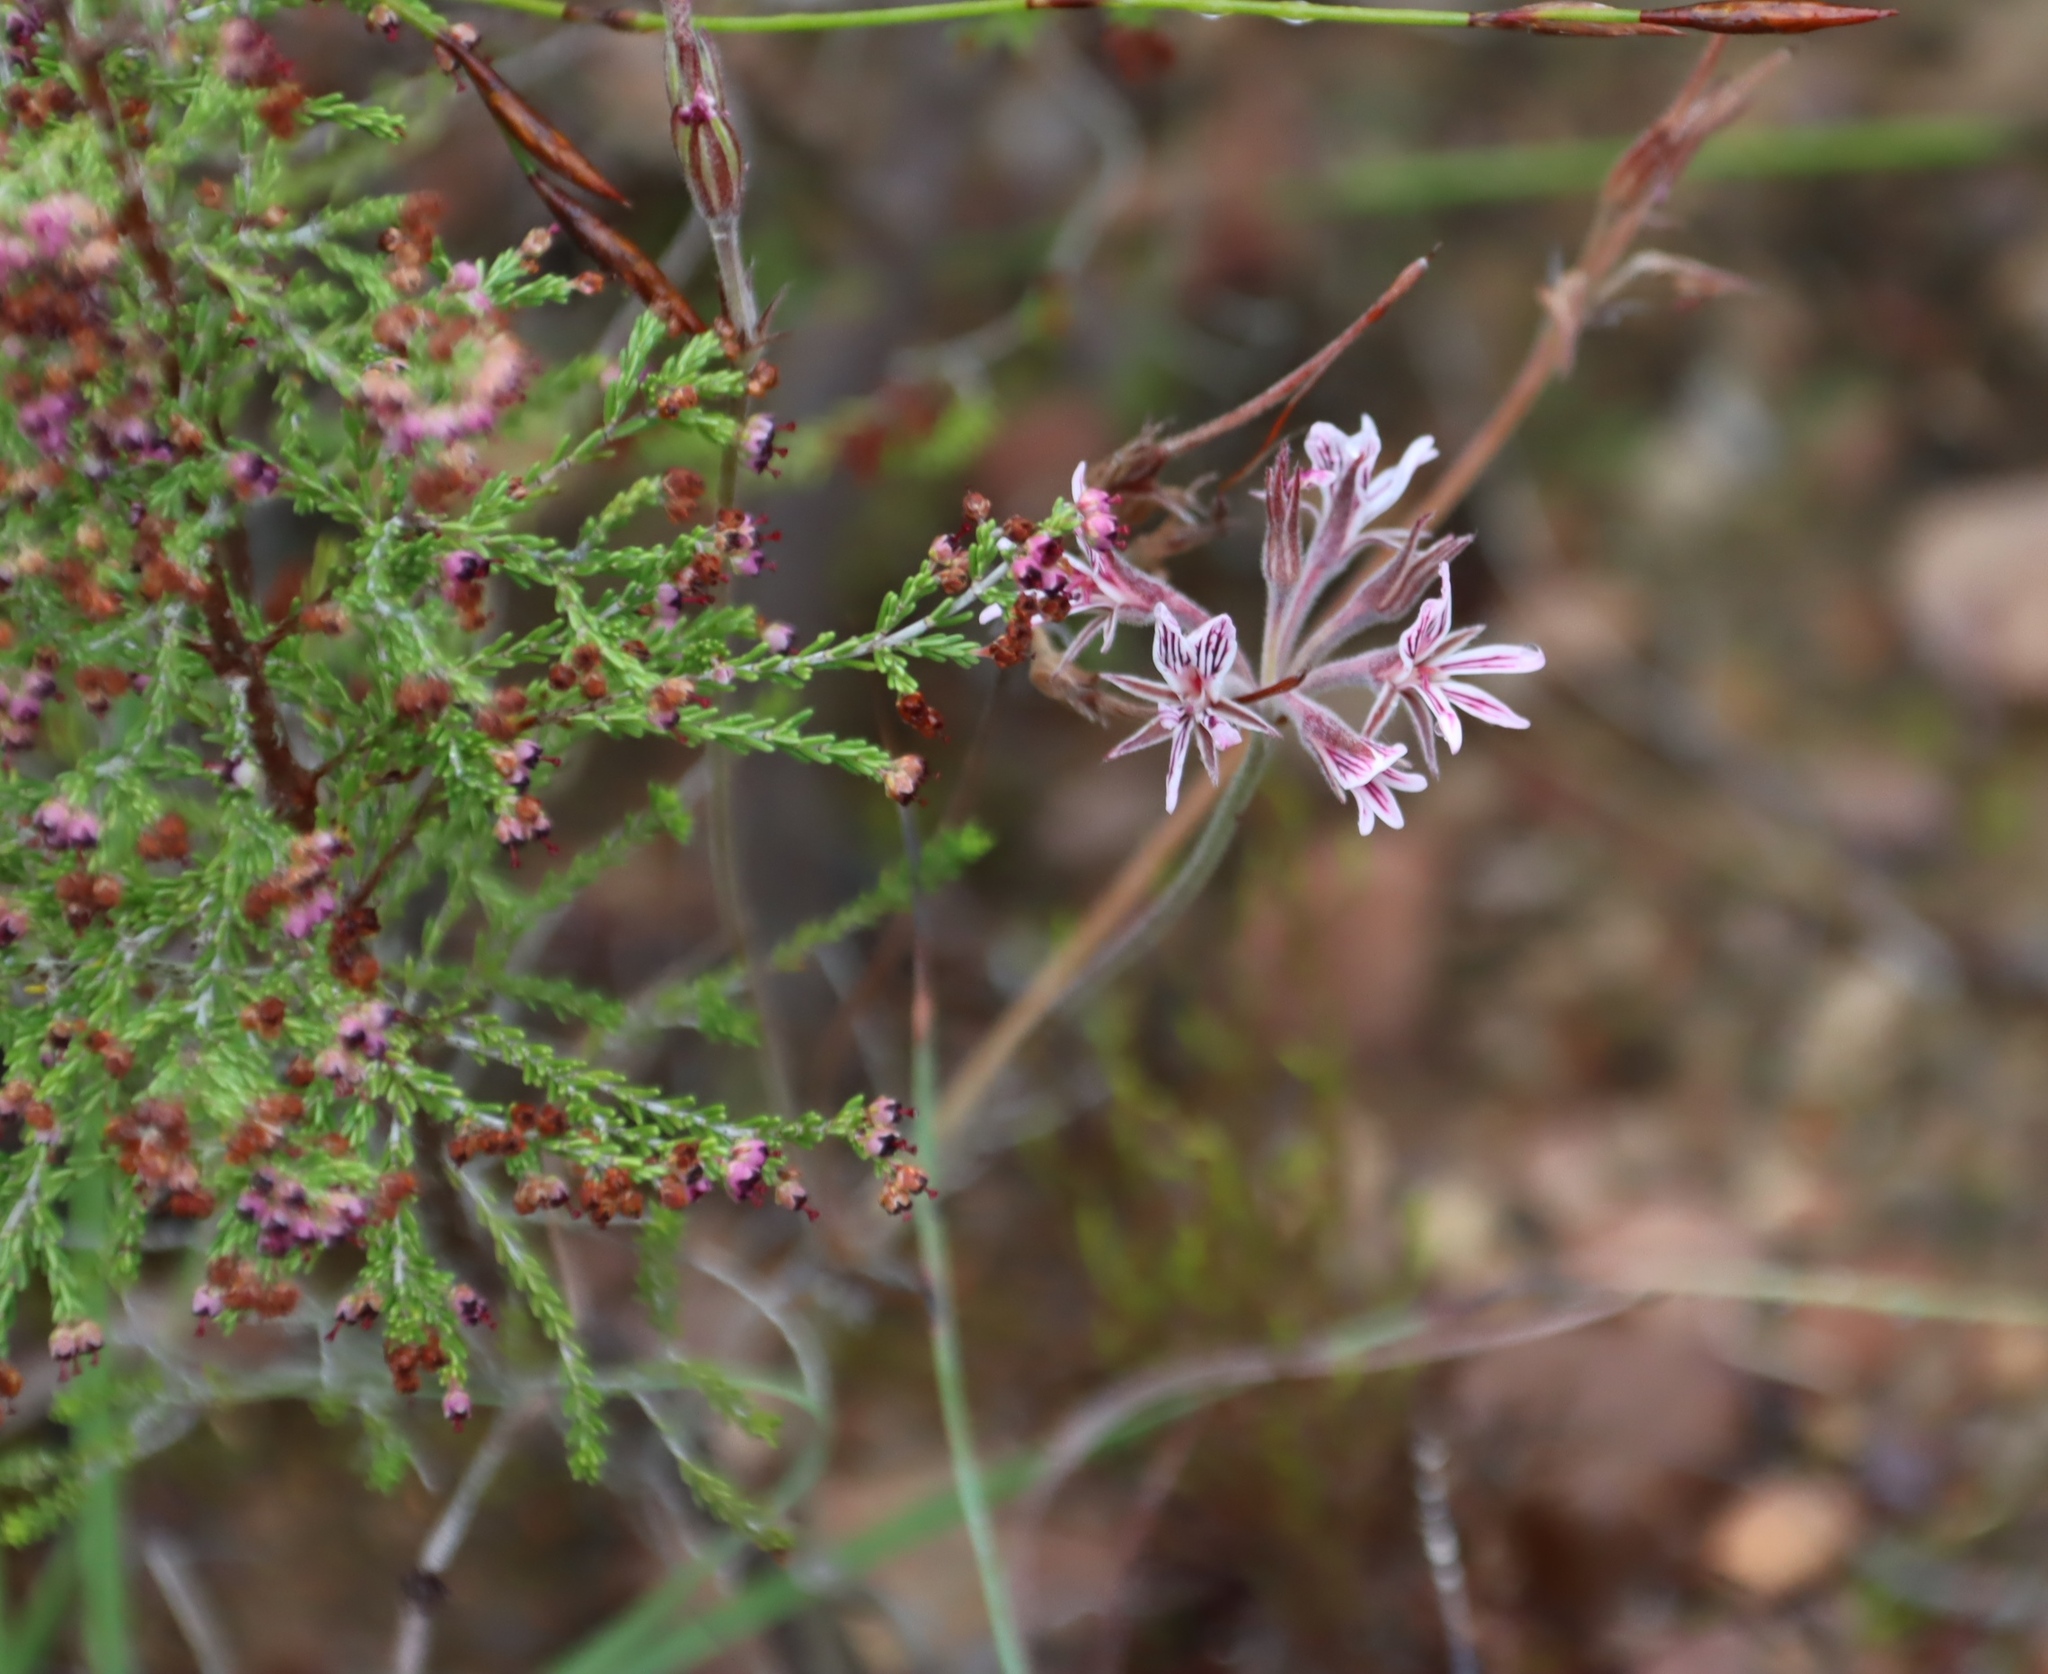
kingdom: Plantae
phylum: Tracheophyta
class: Magnoliopsida
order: Geraniales
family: Geraniaceae
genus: Pelargonium
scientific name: Pelargonium pilosellifolium
